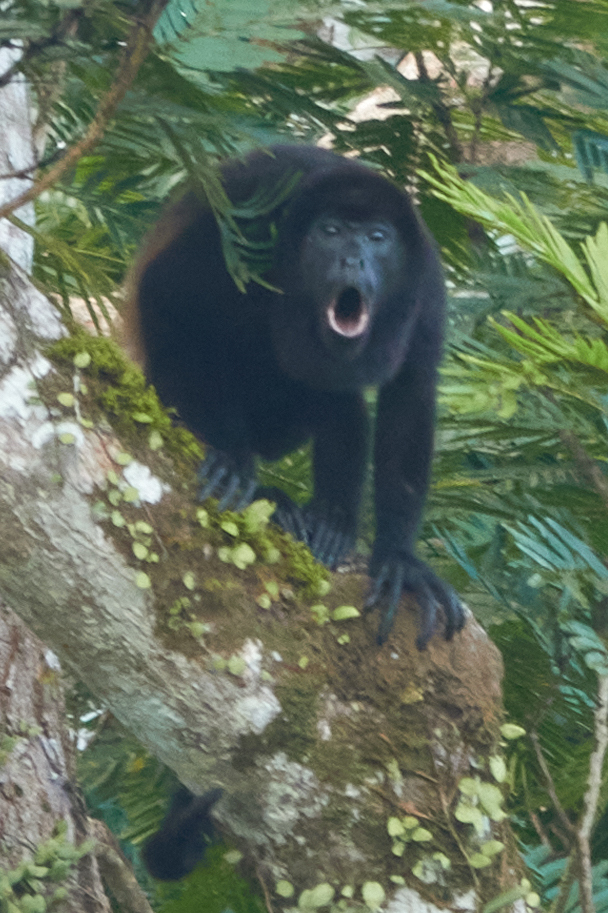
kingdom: Animalia
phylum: Chordata
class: Mammalia
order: Primates
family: Atelidae
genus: Alouatta
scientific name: Alouatta palliata
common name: Mantled howler
